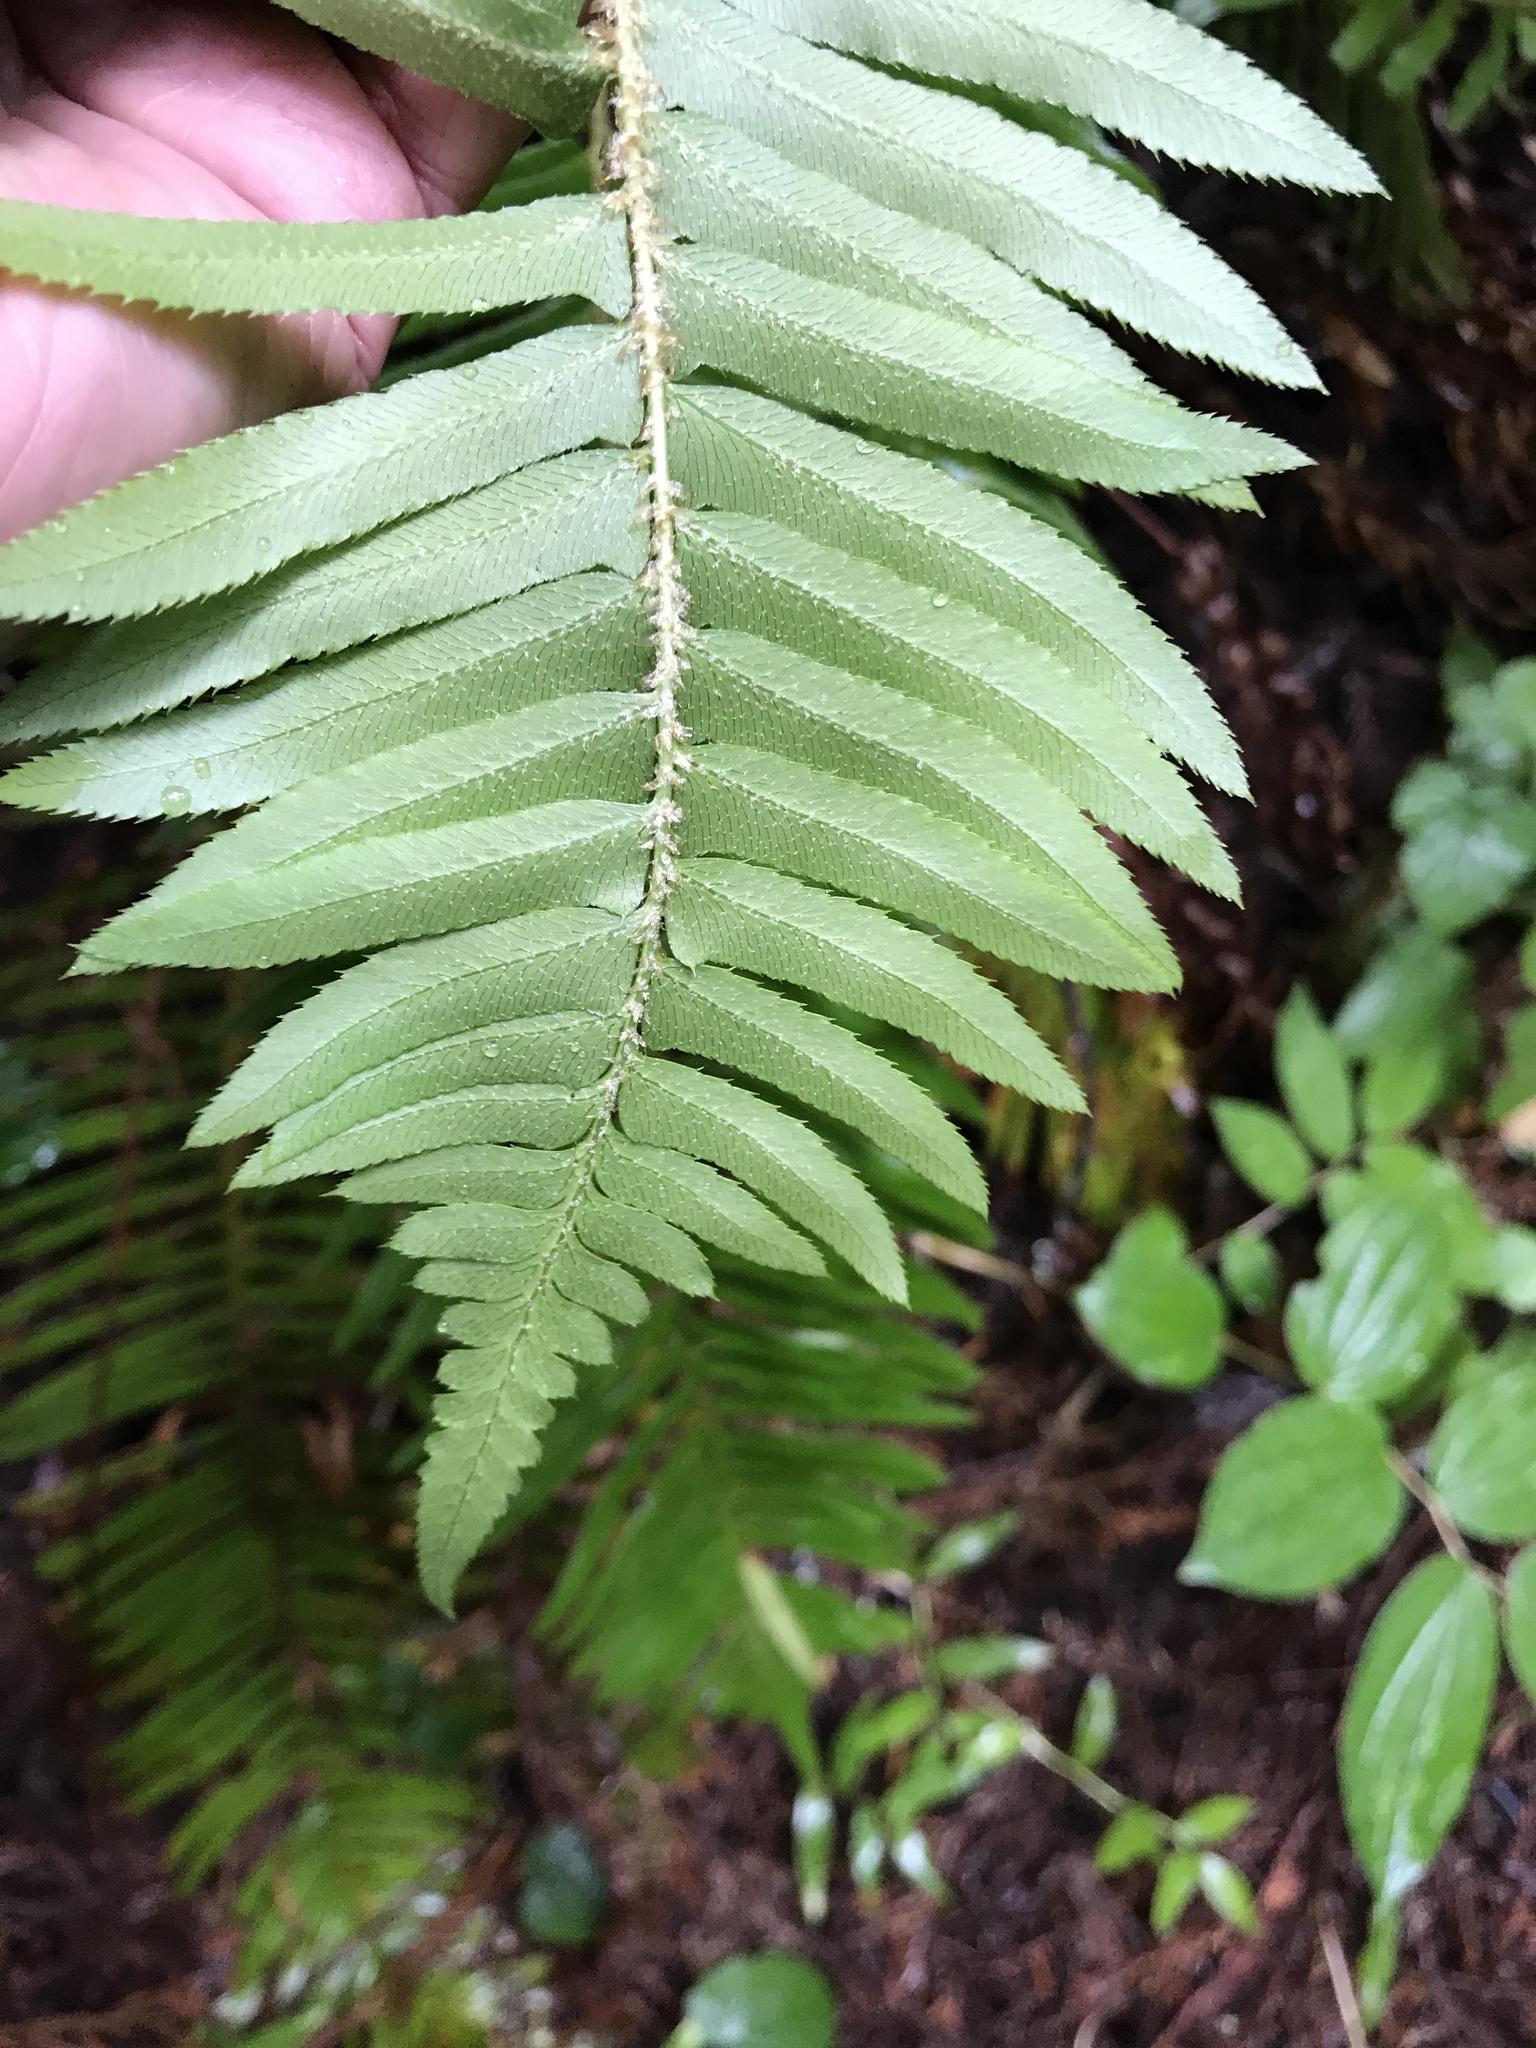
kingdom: Plantae
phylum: Tracheophyta
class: Polypodiopsida
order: Polypodiales
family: Dryopteridaceae
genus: Polystichum
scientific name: Polystichum munitum
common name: Western sword-fern
